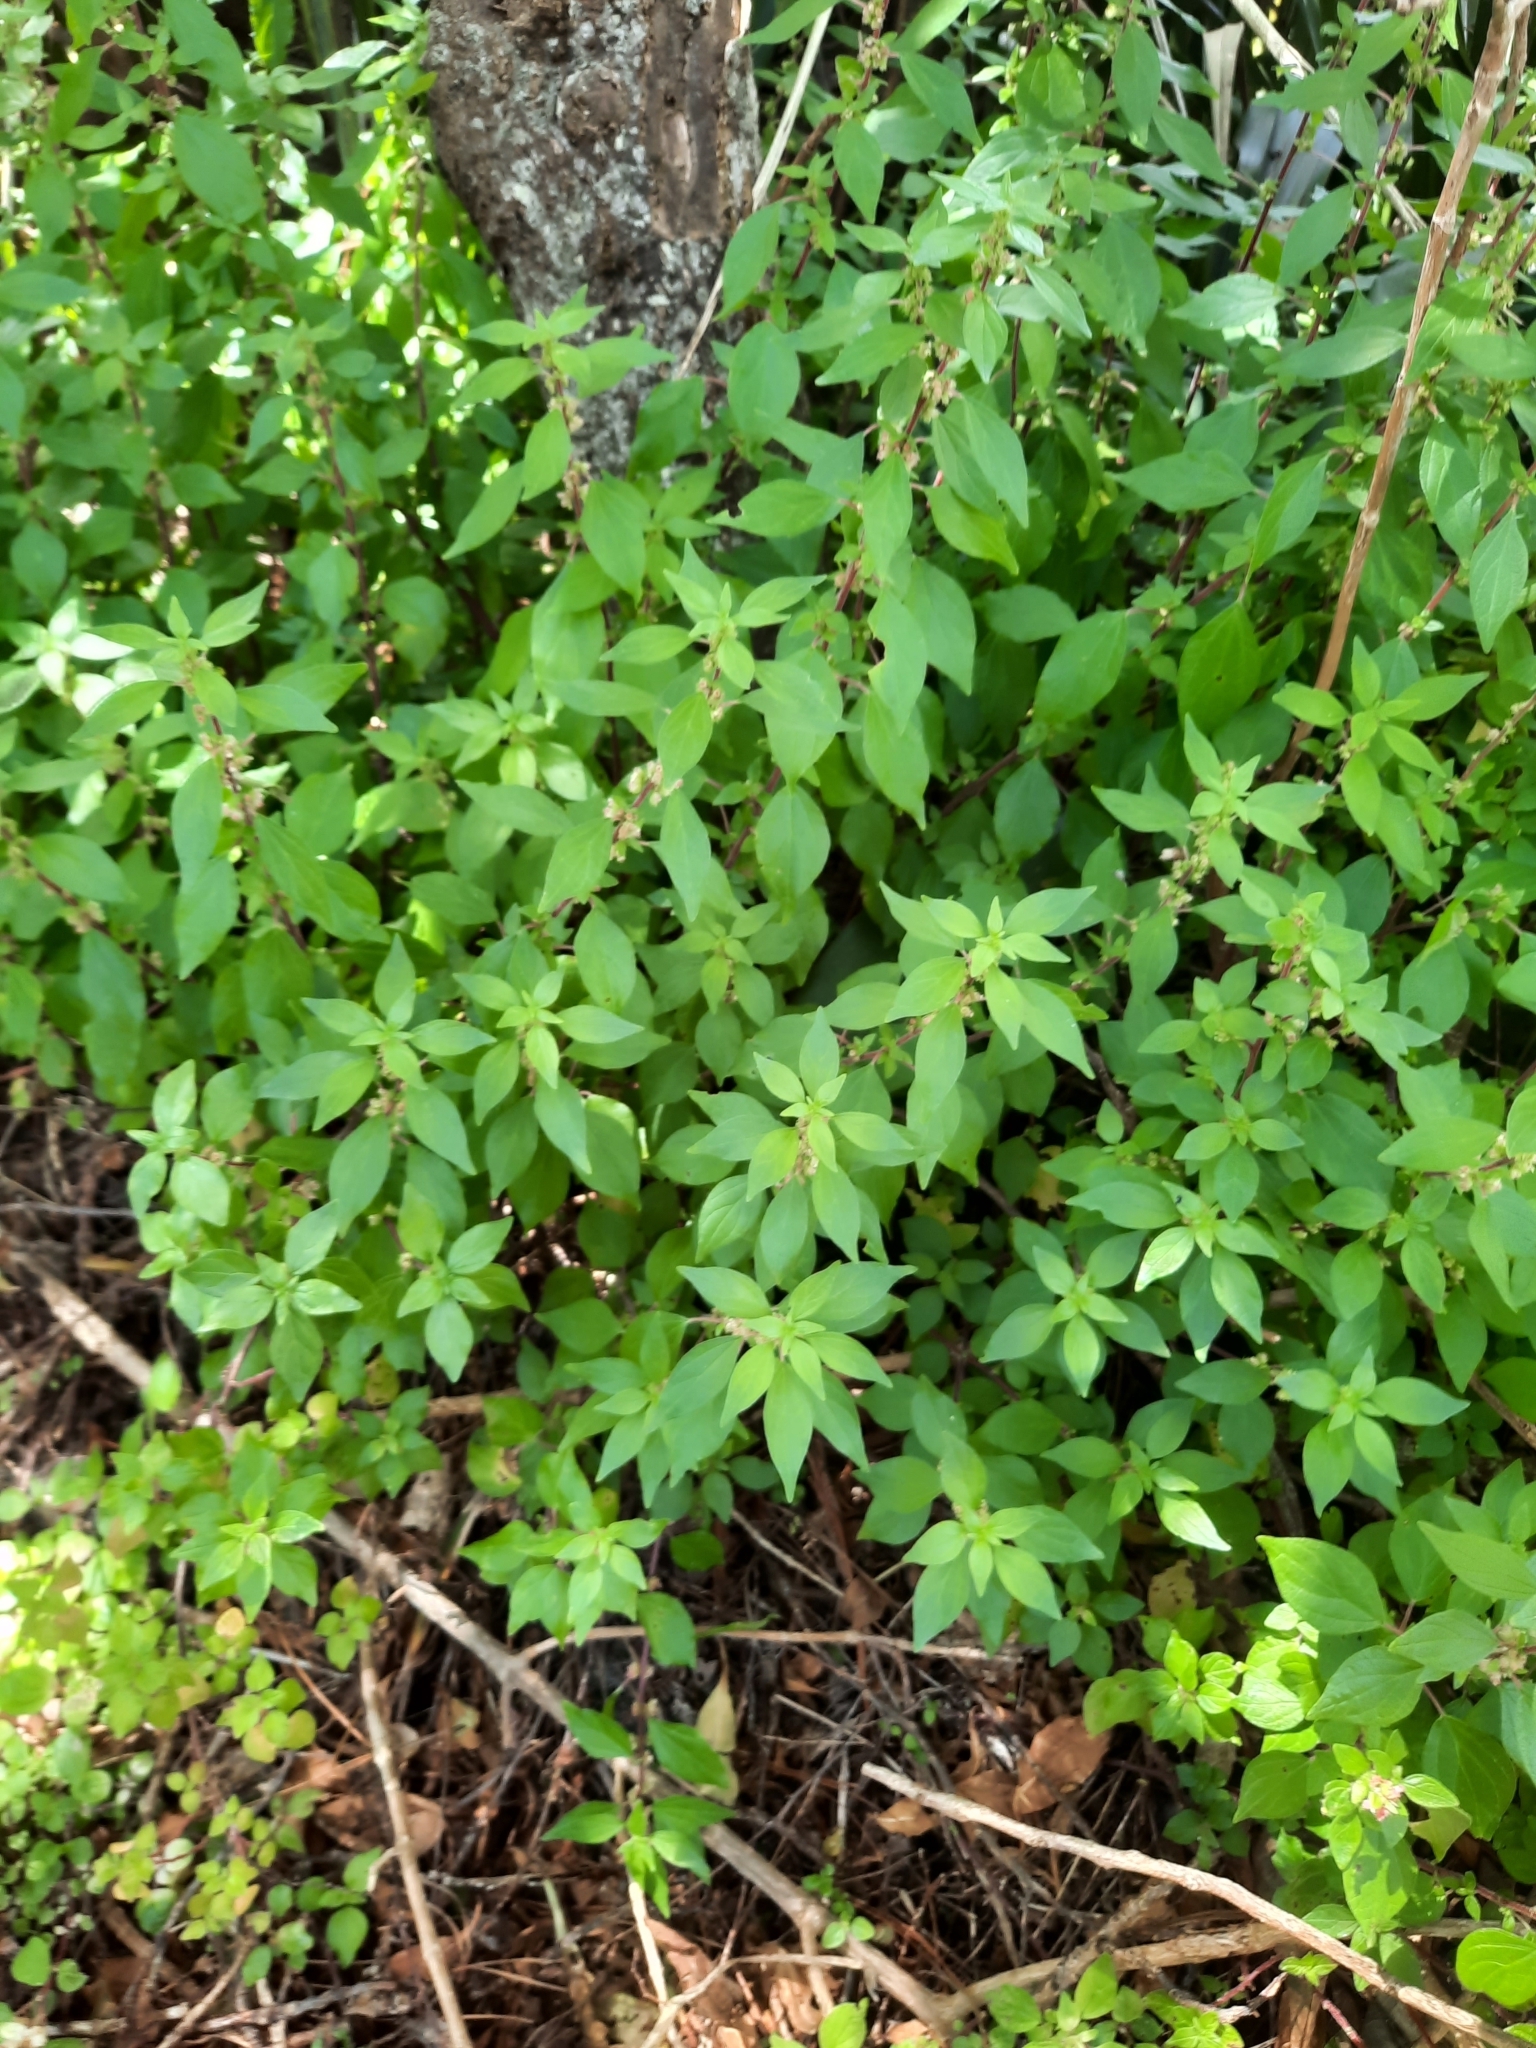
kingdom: Plantae
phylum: Tracheophyta
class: Magnoliopsida
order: Rosales
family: Urticaceae
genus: Parietaria
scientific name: Parietaria judaica
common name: Pellitory-of-the-wall
